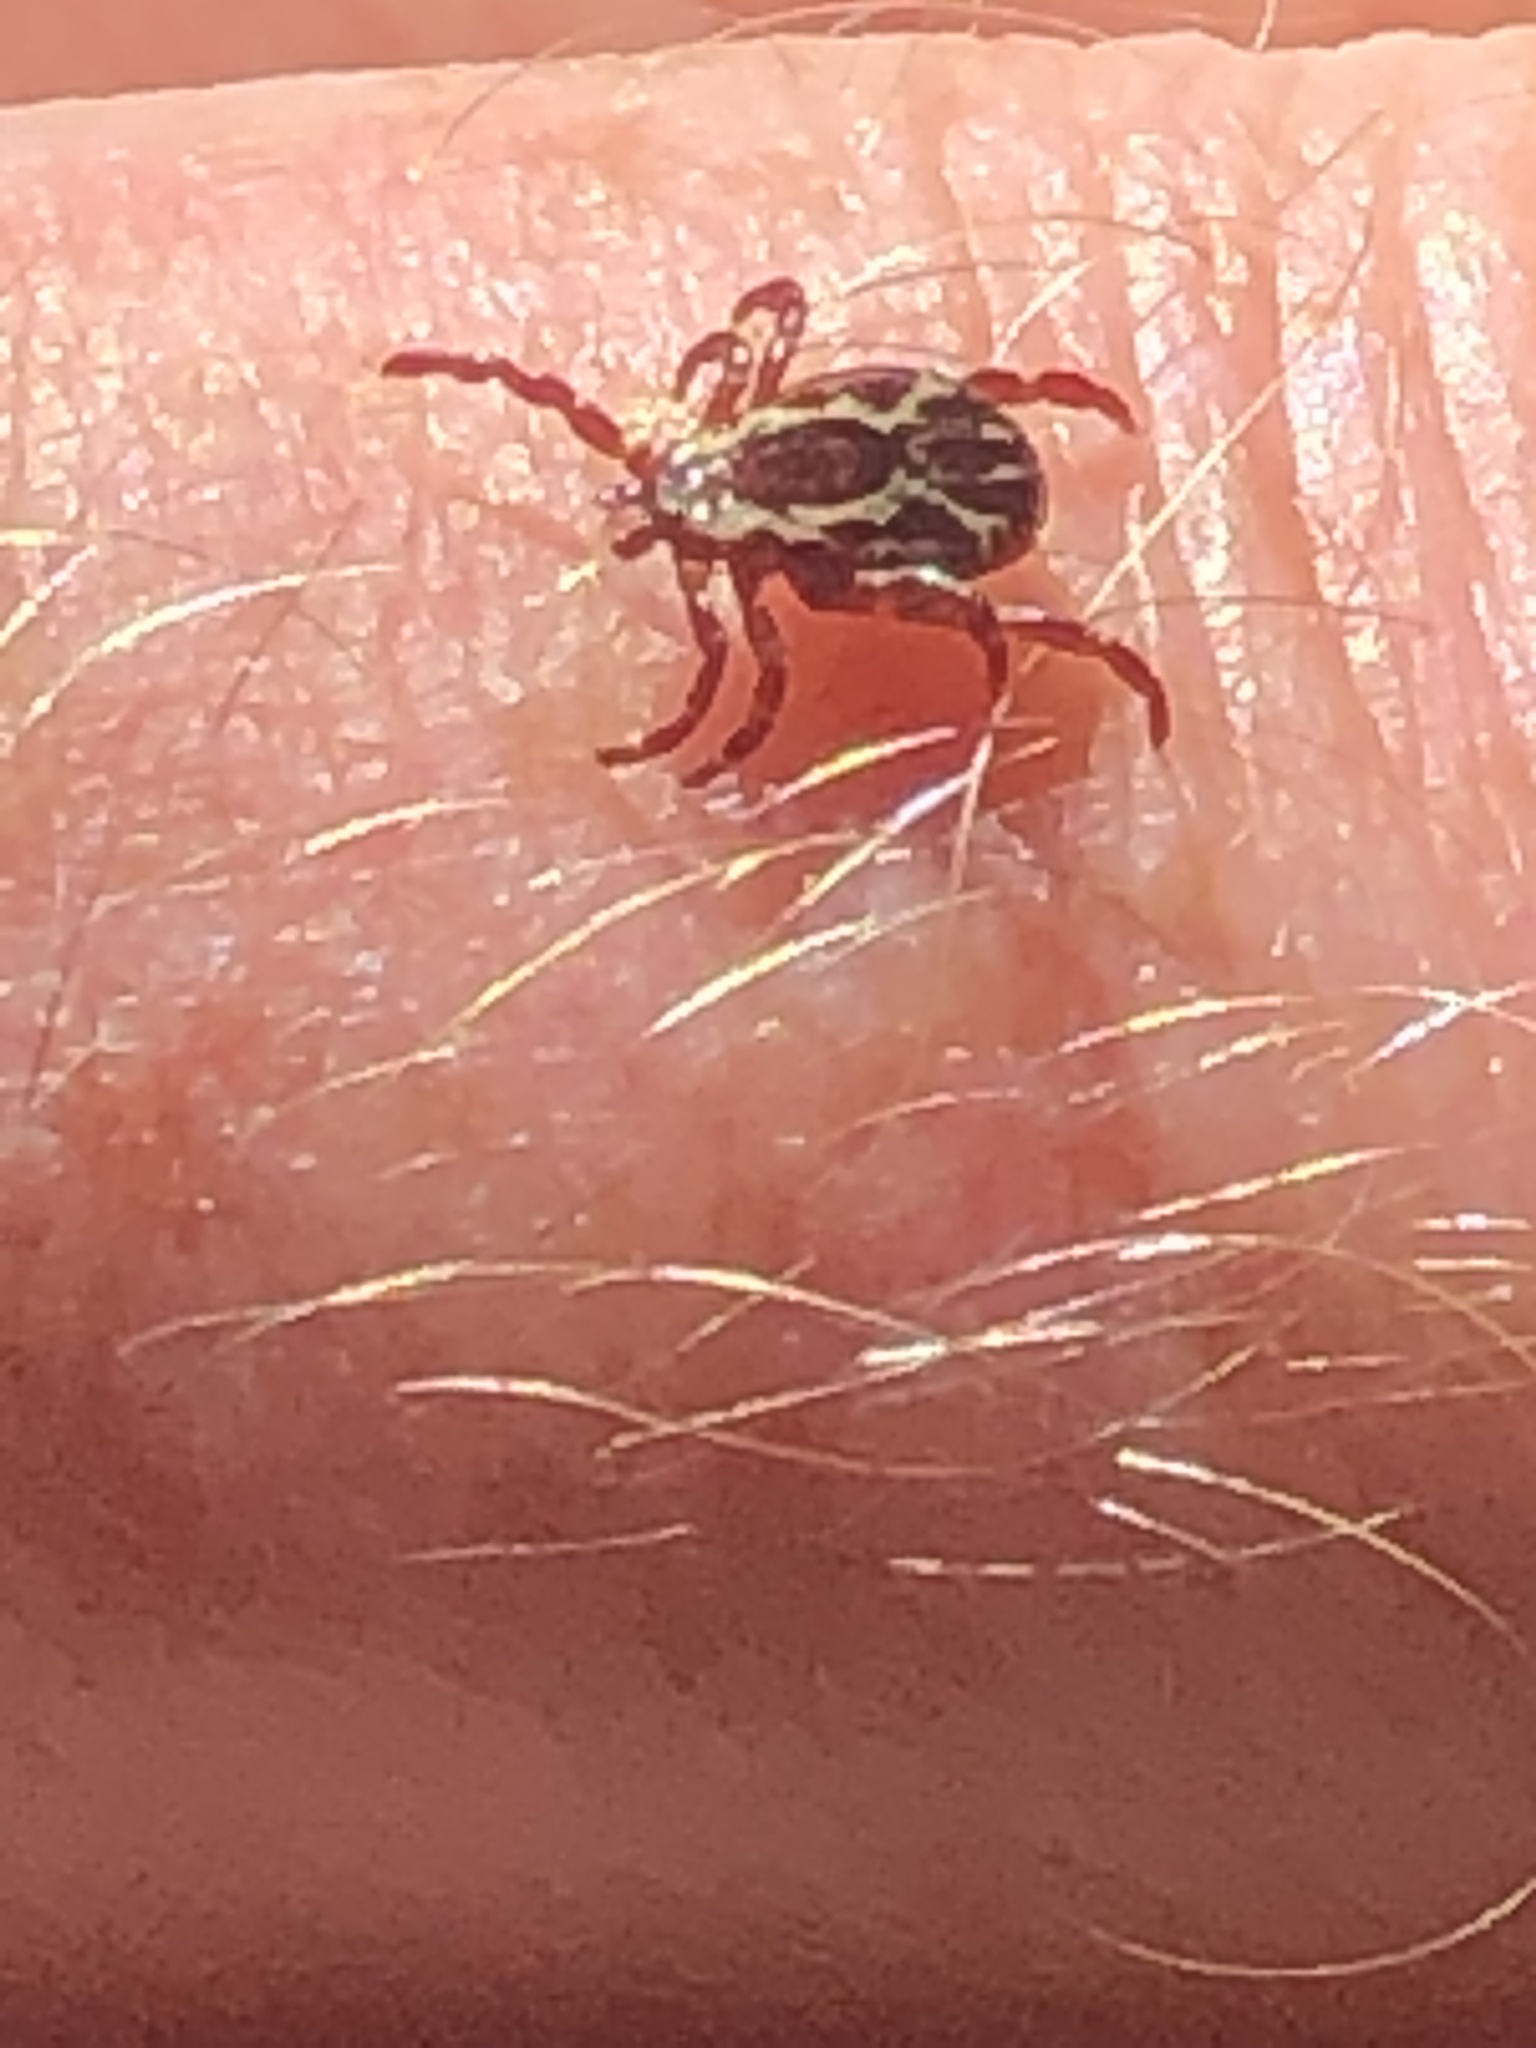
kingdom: Animalia
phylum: Arthropoda
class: Arachnida
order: Ixodida
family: Ixodidae
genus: Dermacentor
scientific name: Dermacentor variabilis
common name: American dog tick
